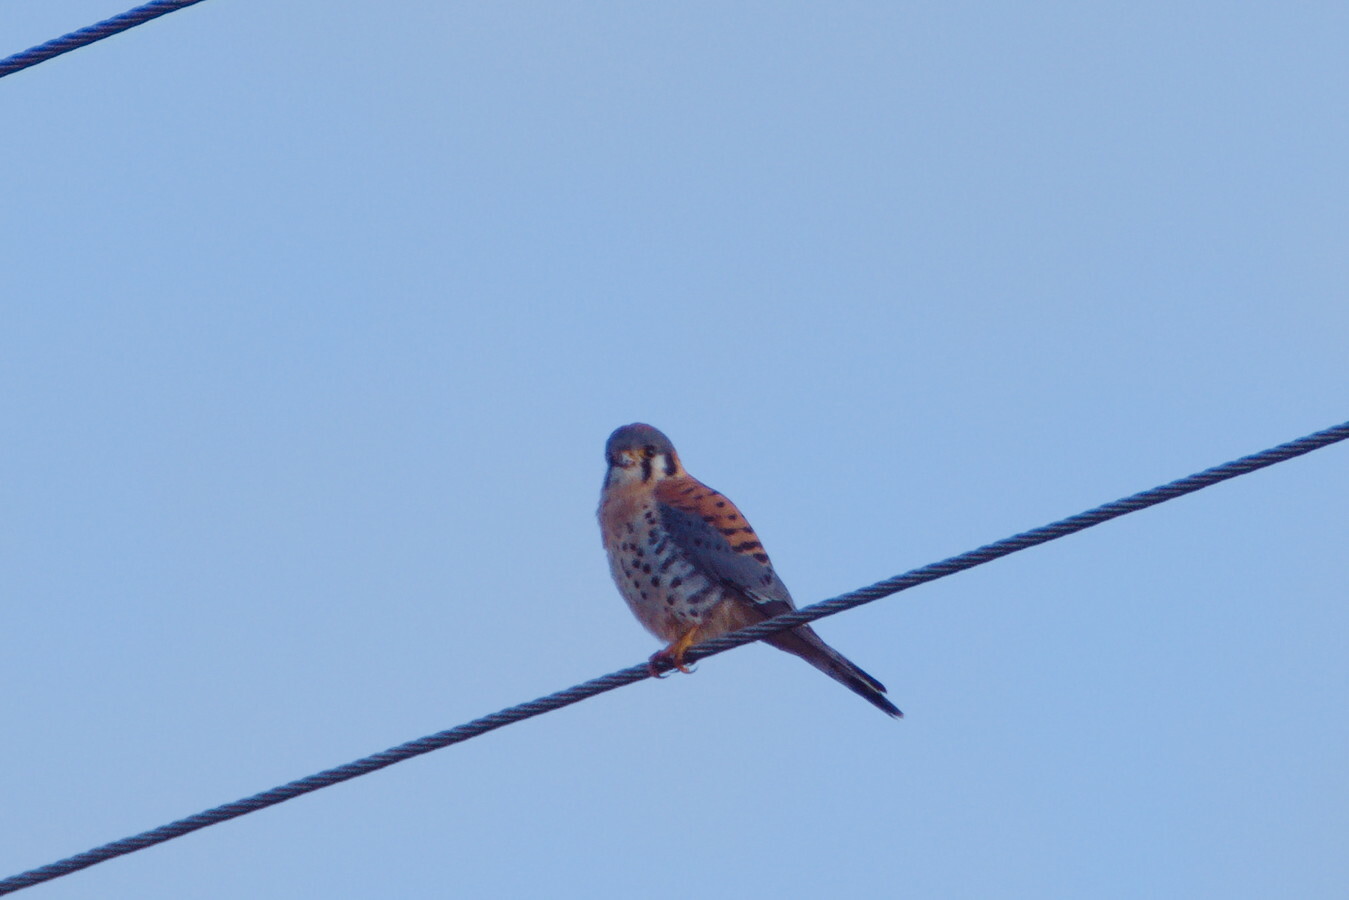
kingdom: Animalia
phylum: Chordata
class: Aves
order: Falconiformes
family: Falconidae
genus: Falco
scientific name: Falco sparverius
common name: American kestrel
